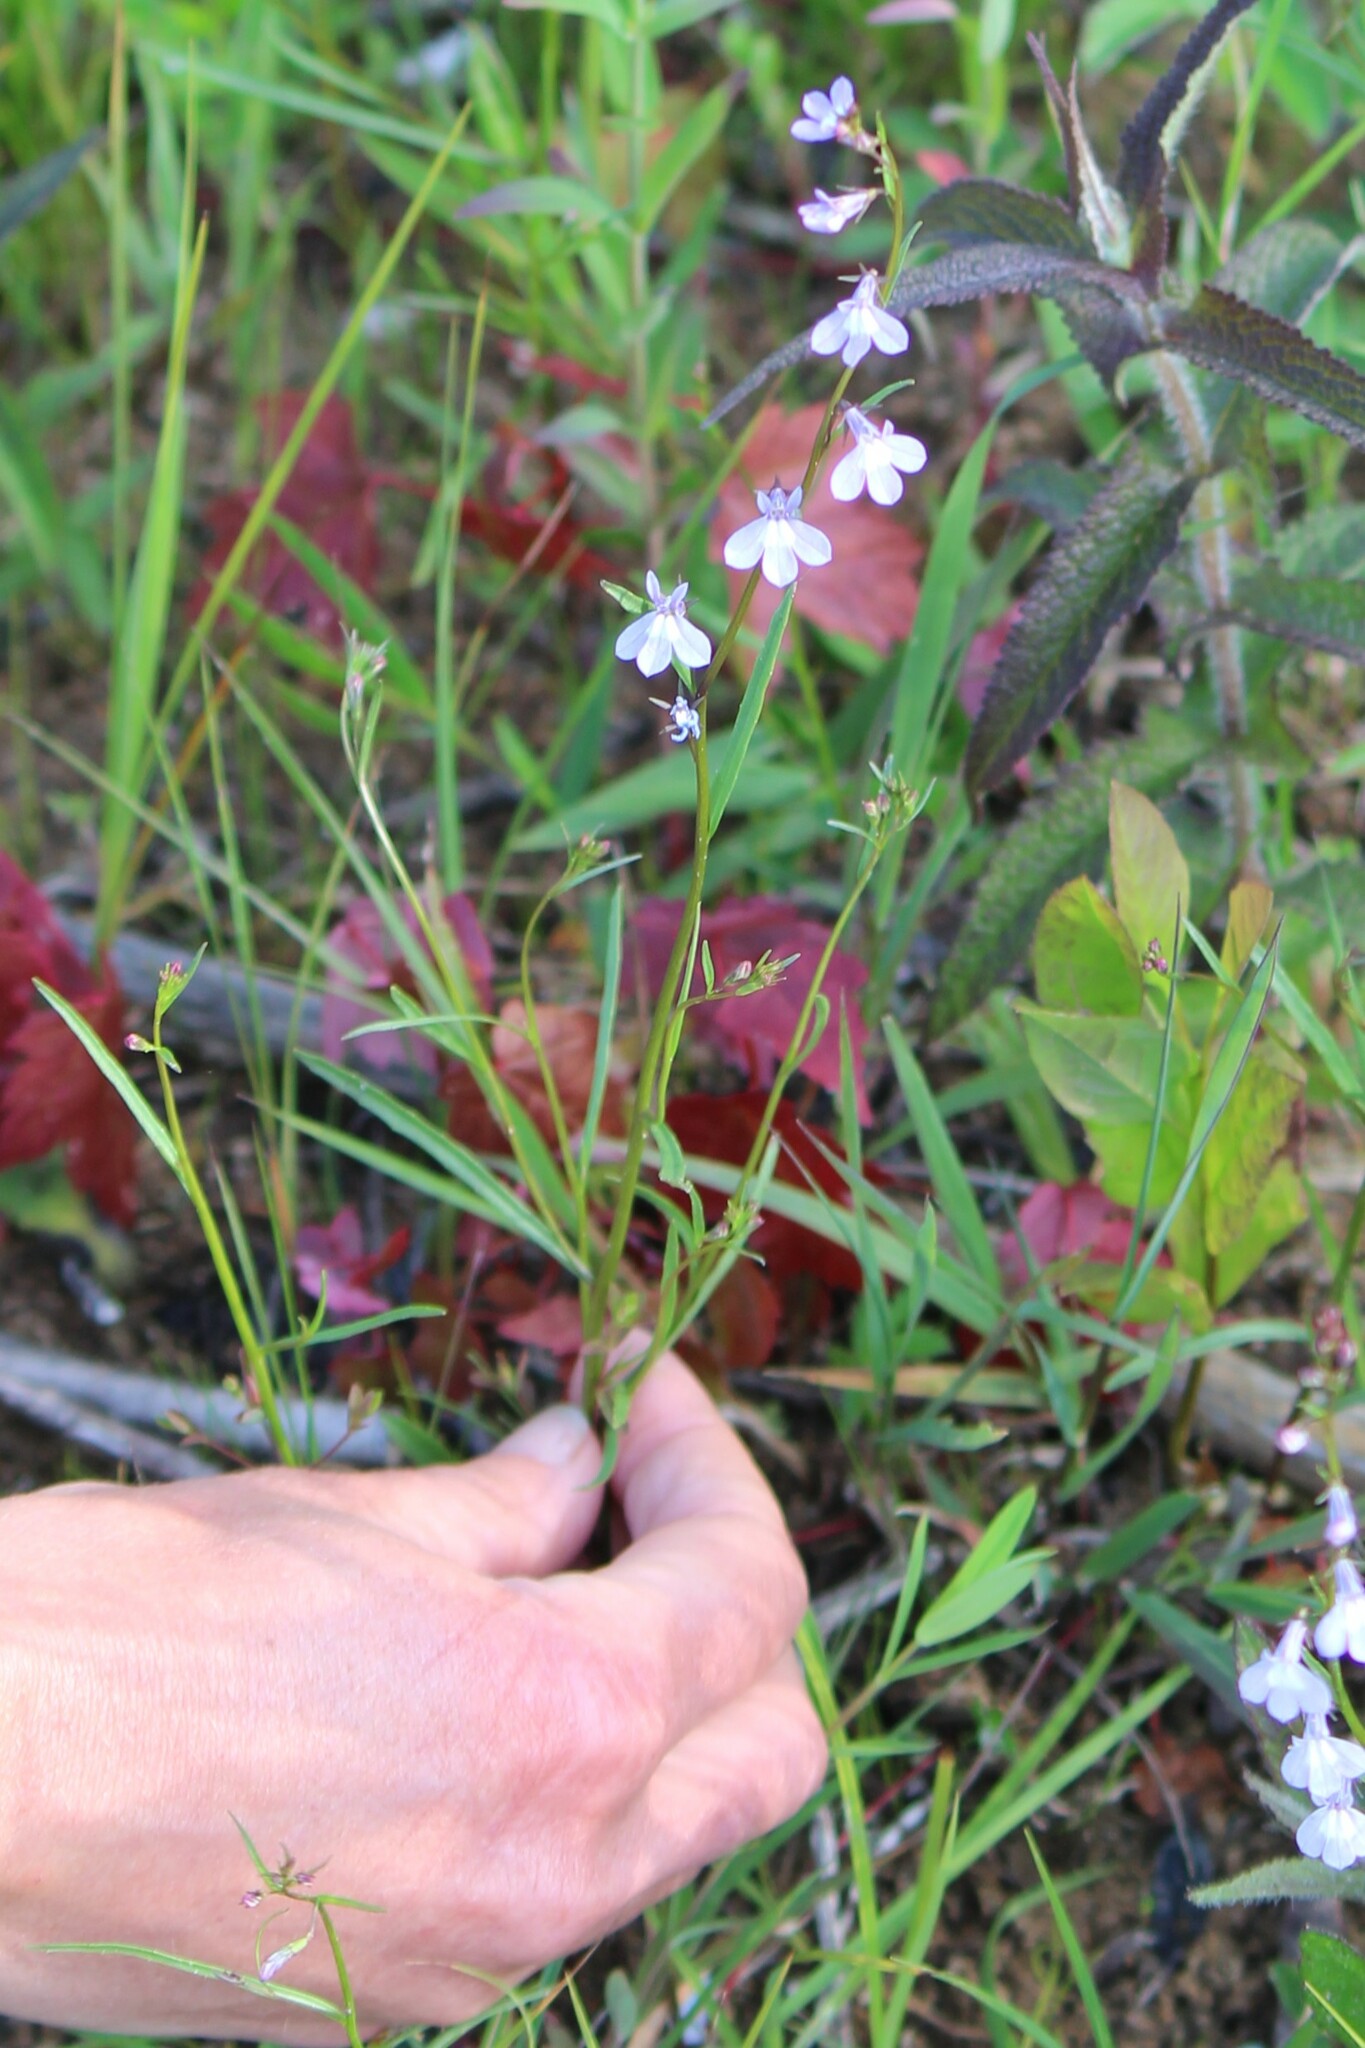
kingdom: Plantae
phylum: Tracheophyta
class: Magnoliopsida
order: Asterales
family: Campanulaceae
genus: Lobelia
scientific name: Lobelia kalmii
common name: Kalm's lobelia
